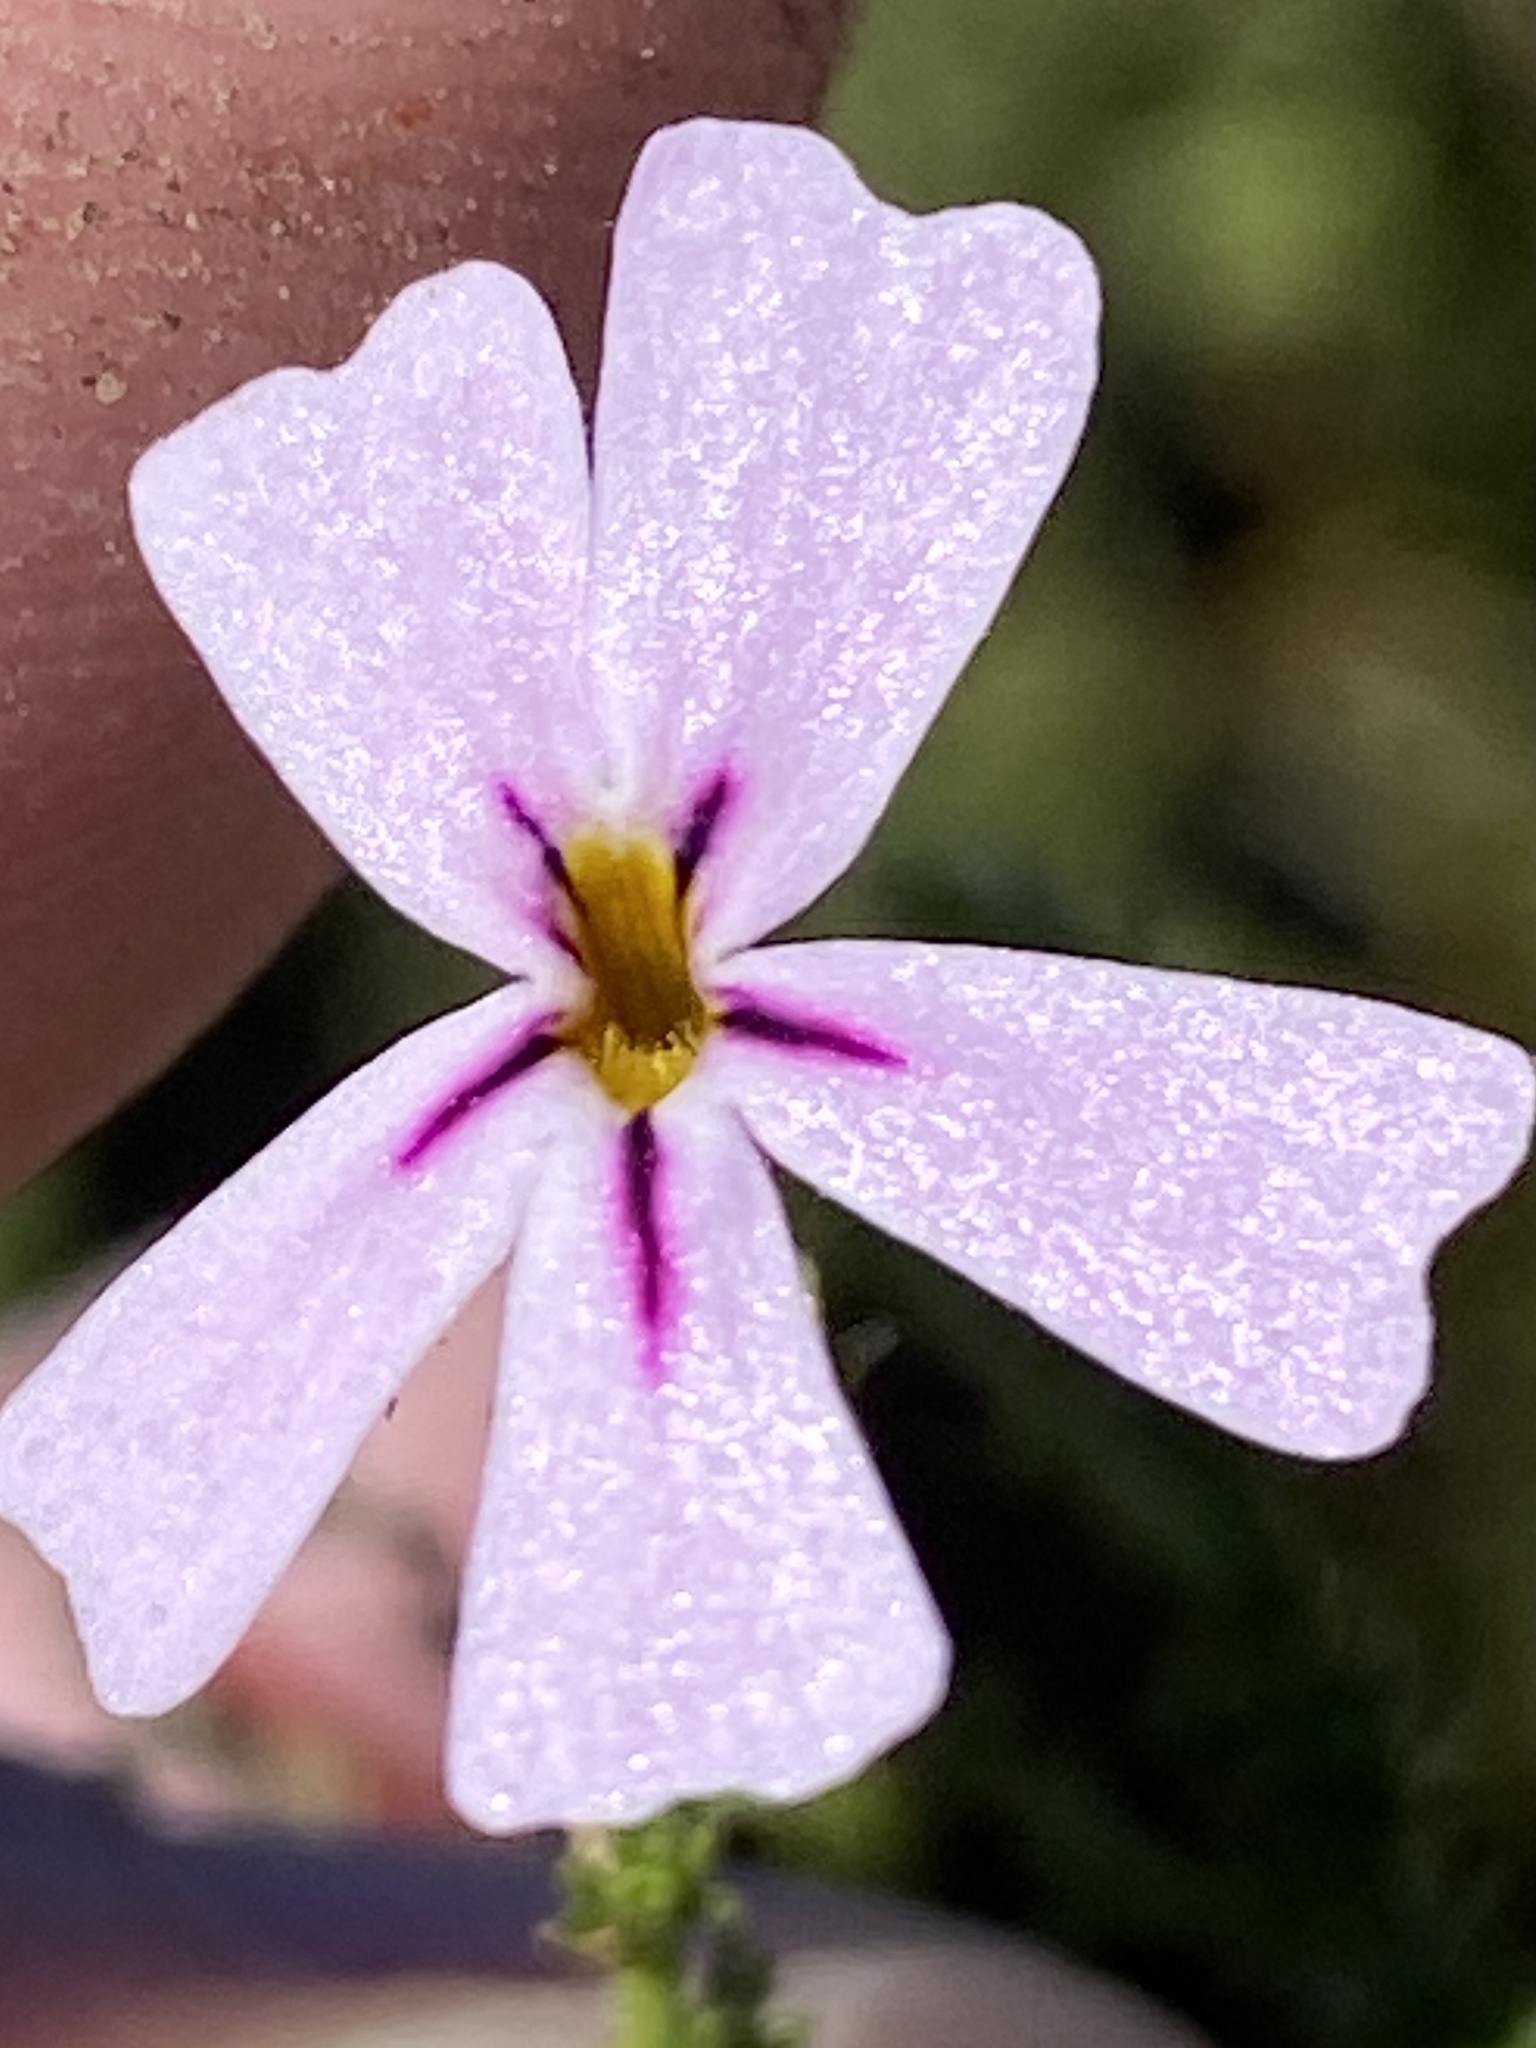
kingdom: Plantae
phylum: Tracheophyta
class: Magnoliopsida
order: Lamiales
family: Scrophulariaceae
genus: Jamesbrittenia
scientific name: Jamesbrittenia aspalathoides
